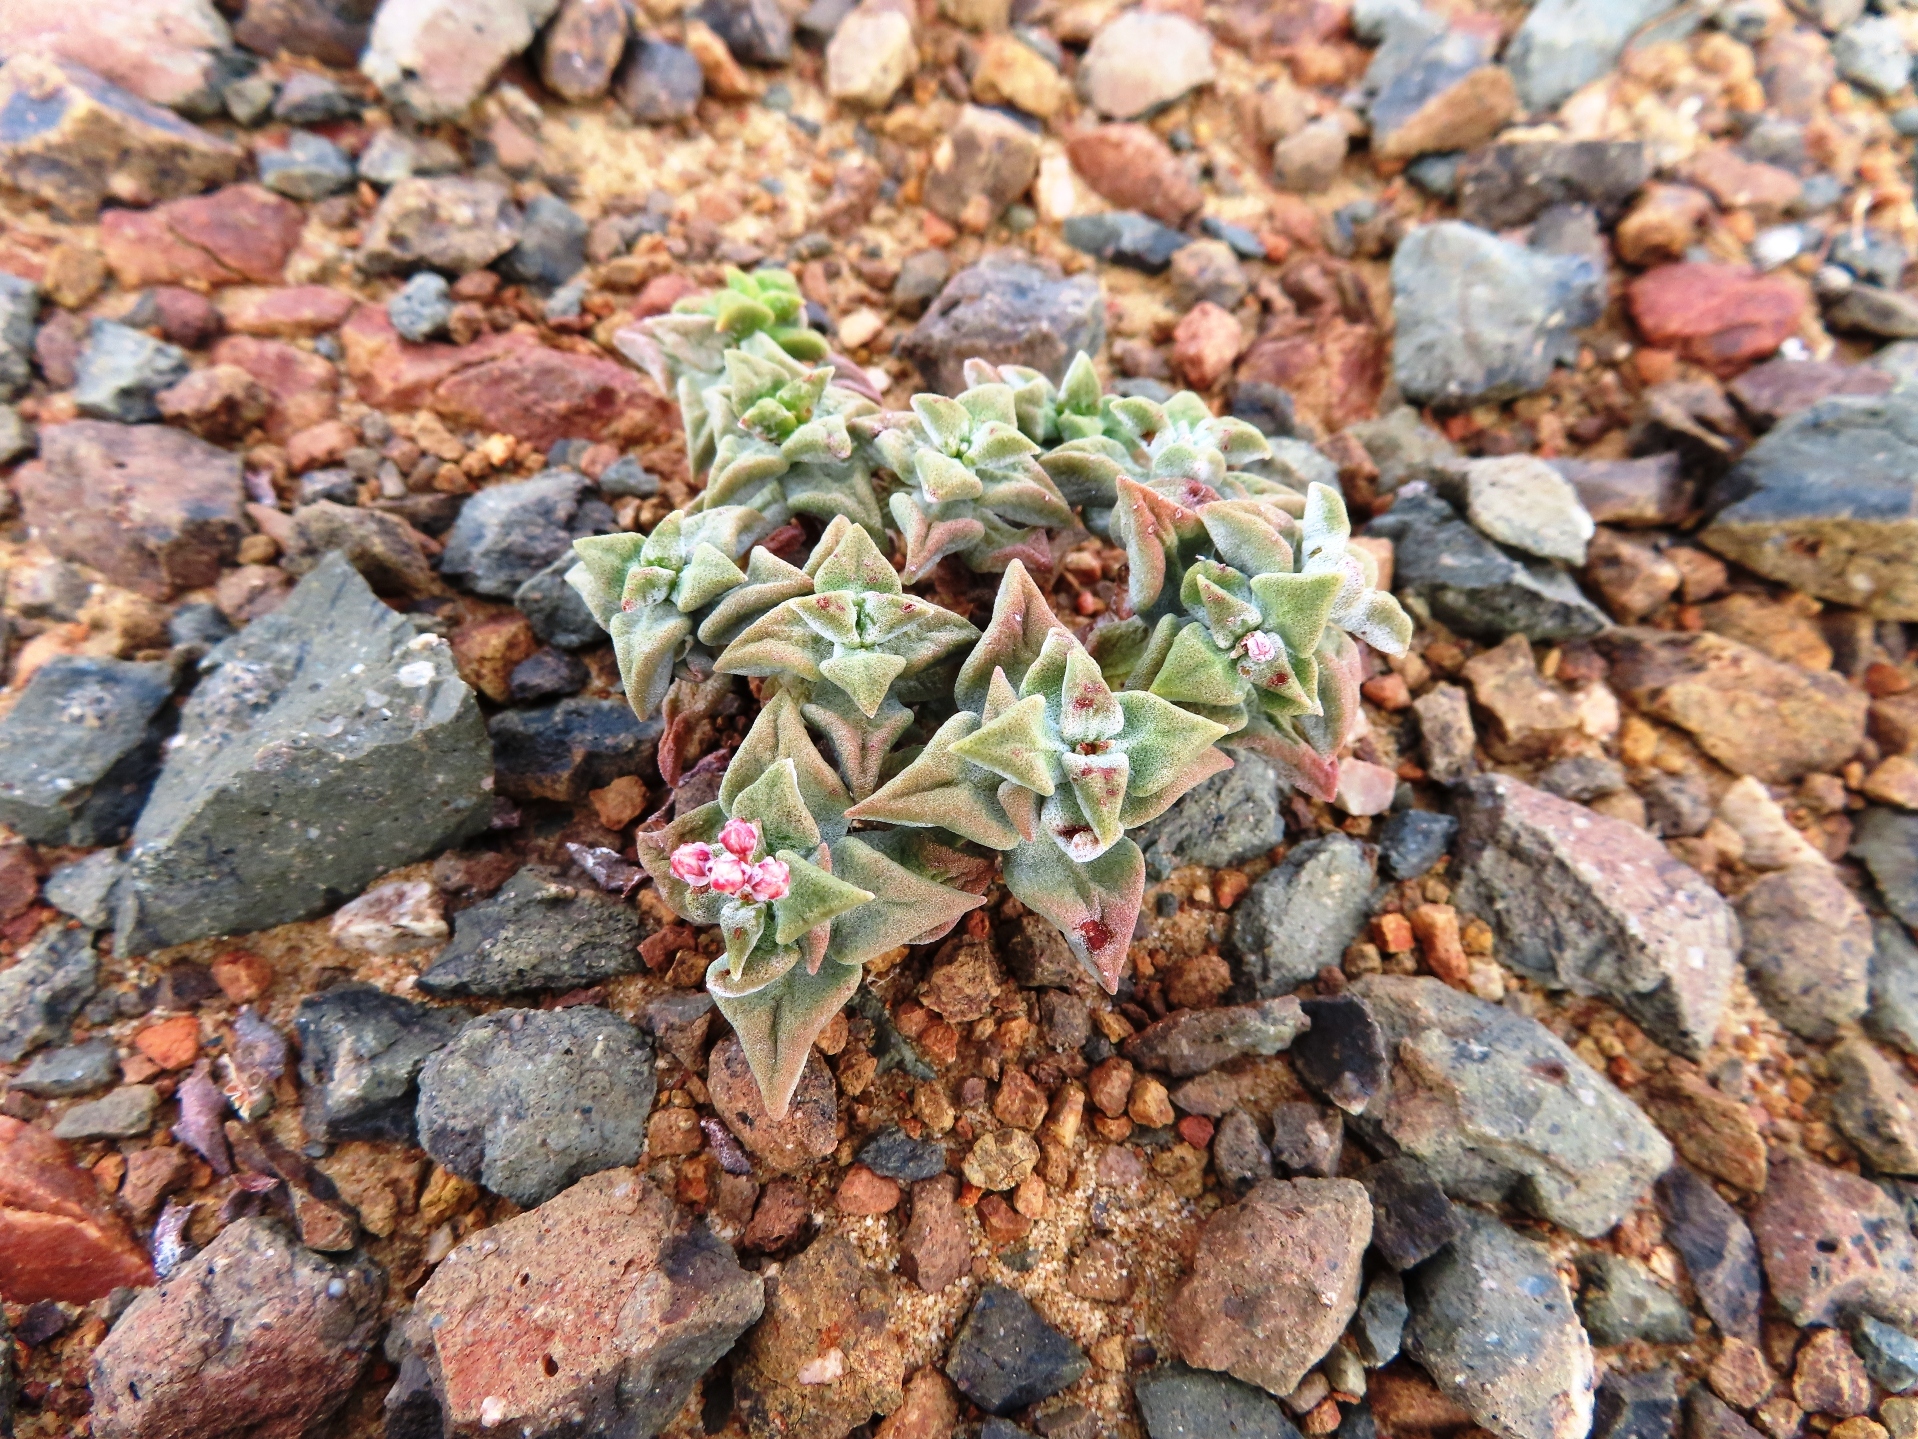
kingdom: Plantae
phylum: Tracheophyta
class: Magnoliopsida
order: Saxifragales
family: Crassulaceae
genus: Crassula
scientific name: Crassula deltoidea
